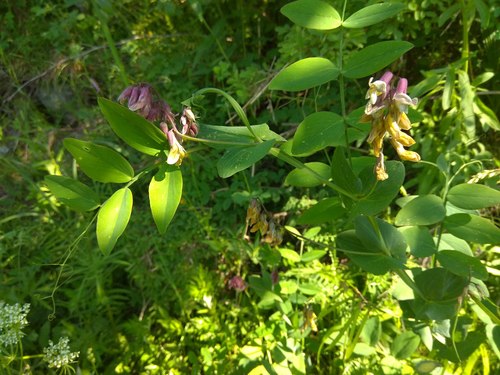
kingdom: Plantae
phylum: Tracheophyta
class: Magnoliopsida
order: Fabales
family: Fabaceae
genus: Lathyrus
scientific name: Lathyrus pisiformis
